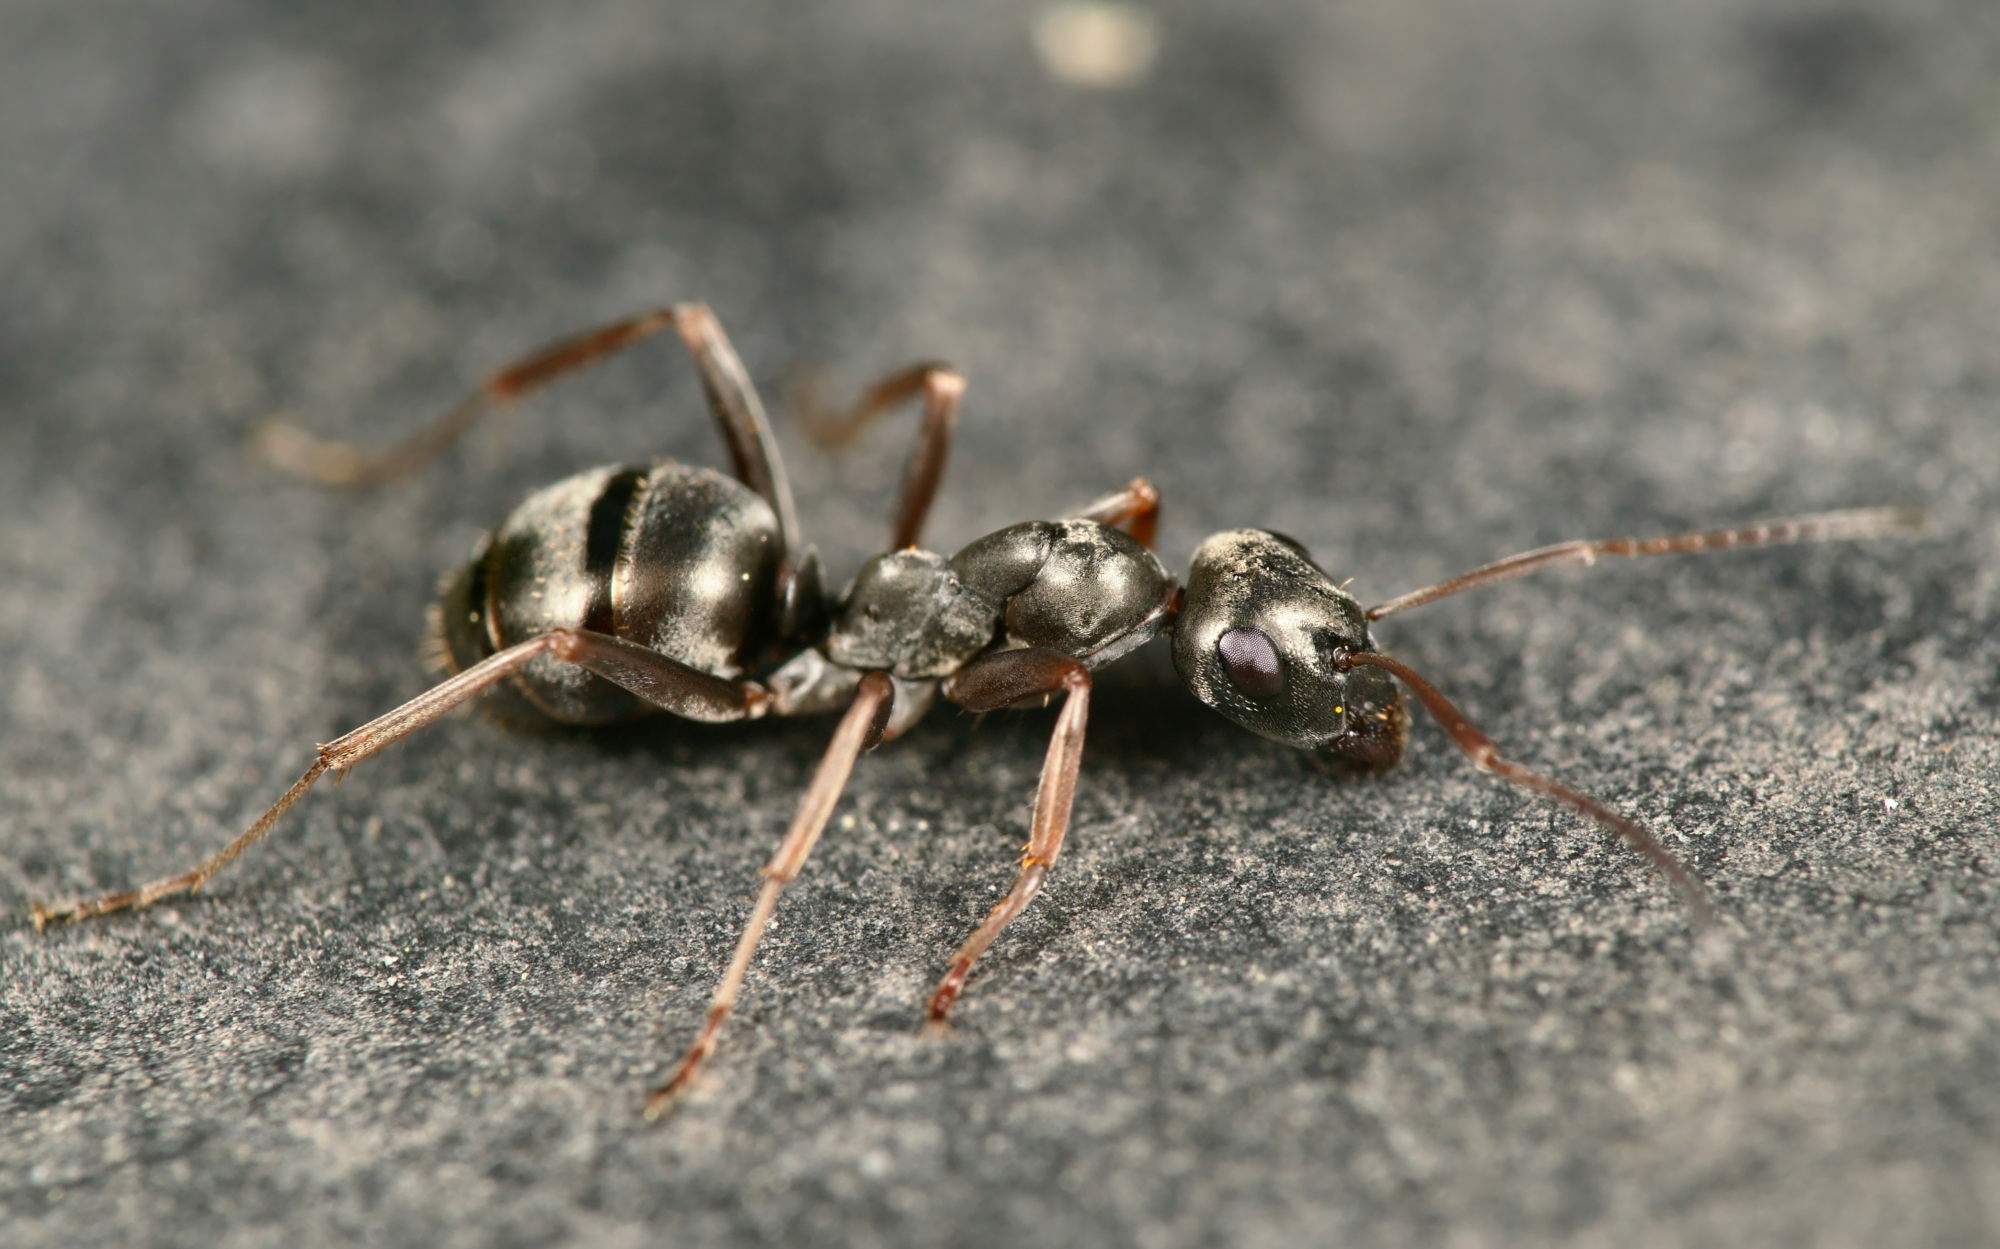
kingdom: Animalia
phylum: Arthropoda
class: Insecta
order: Hymenoptera
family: Formicidae
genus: Formica
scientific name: Formica fusca
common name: Silky ant
